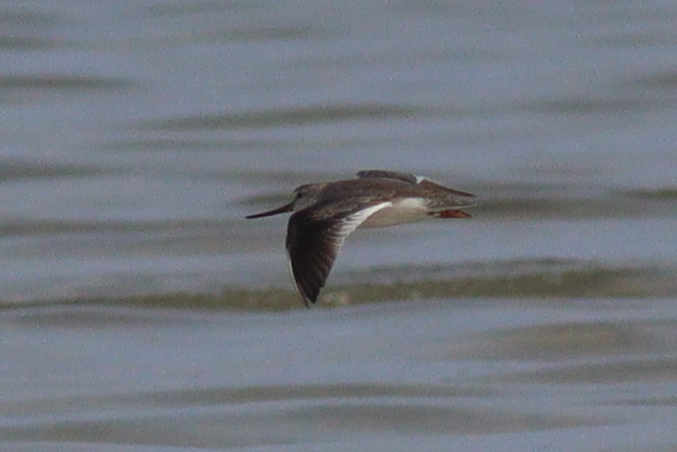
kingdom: Animalia
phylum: Chordata
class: Aves
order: Charadriiformes
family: Scolopacidae
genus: Xenus
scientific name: Xenus cinereus
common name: Terek sandpiper
